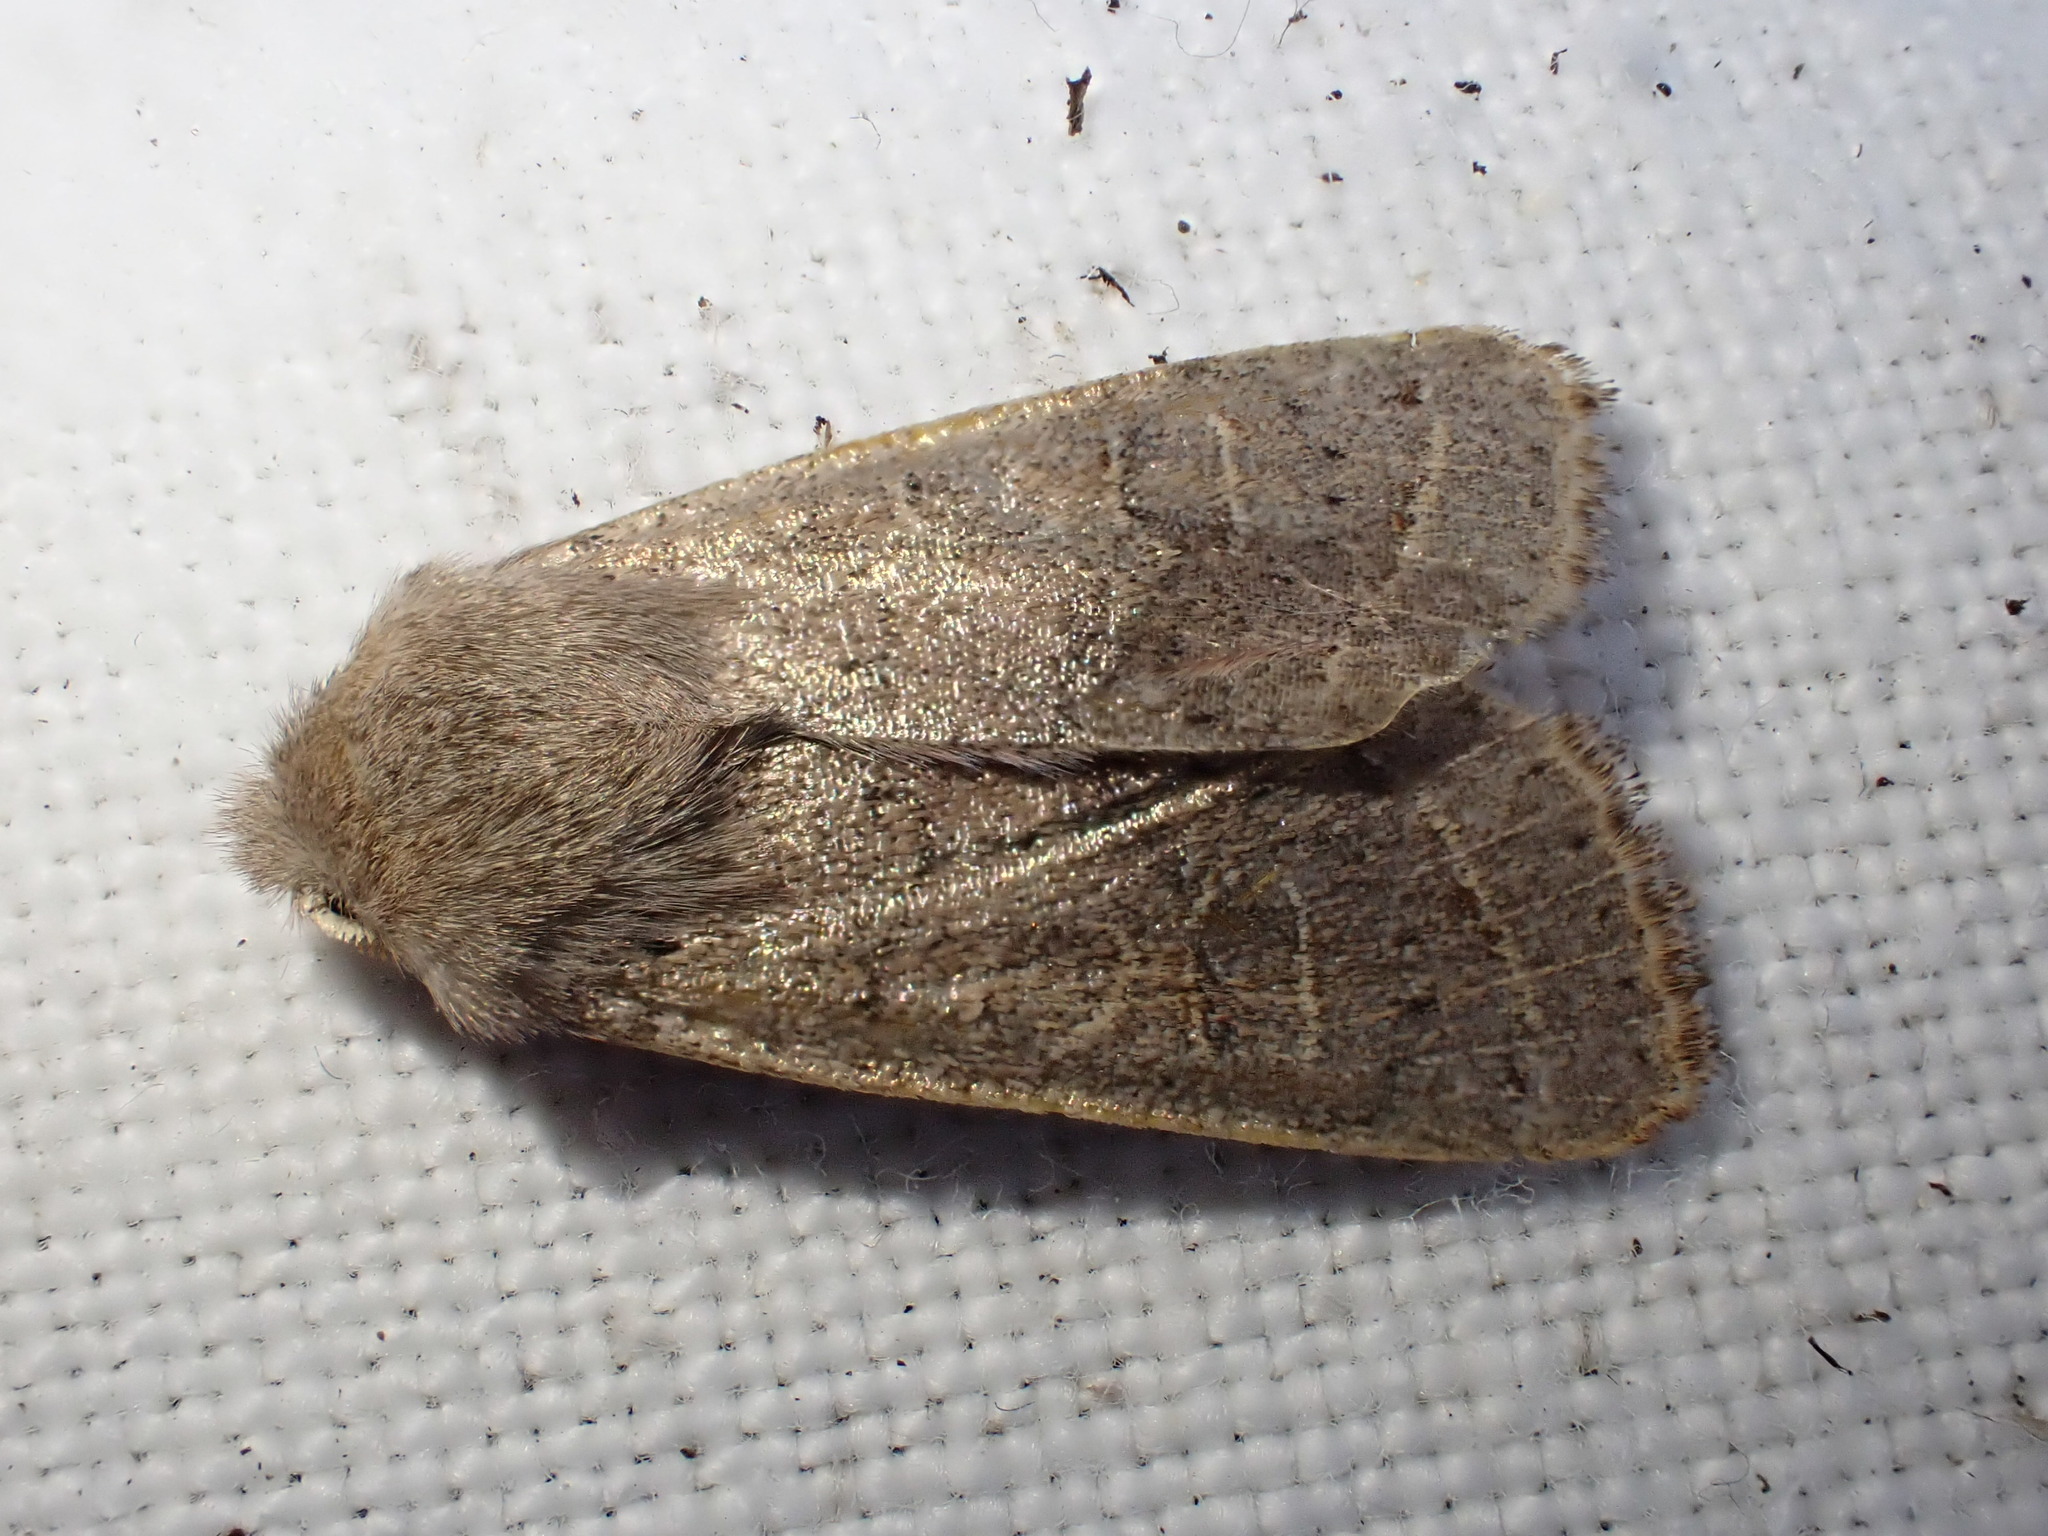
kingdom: Animalia
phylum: Arthropoda
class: Insecta
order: Lepidoptera
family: Noctuidae
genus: Orthosia
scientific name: Orthosia cerasi
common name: Common quaker
